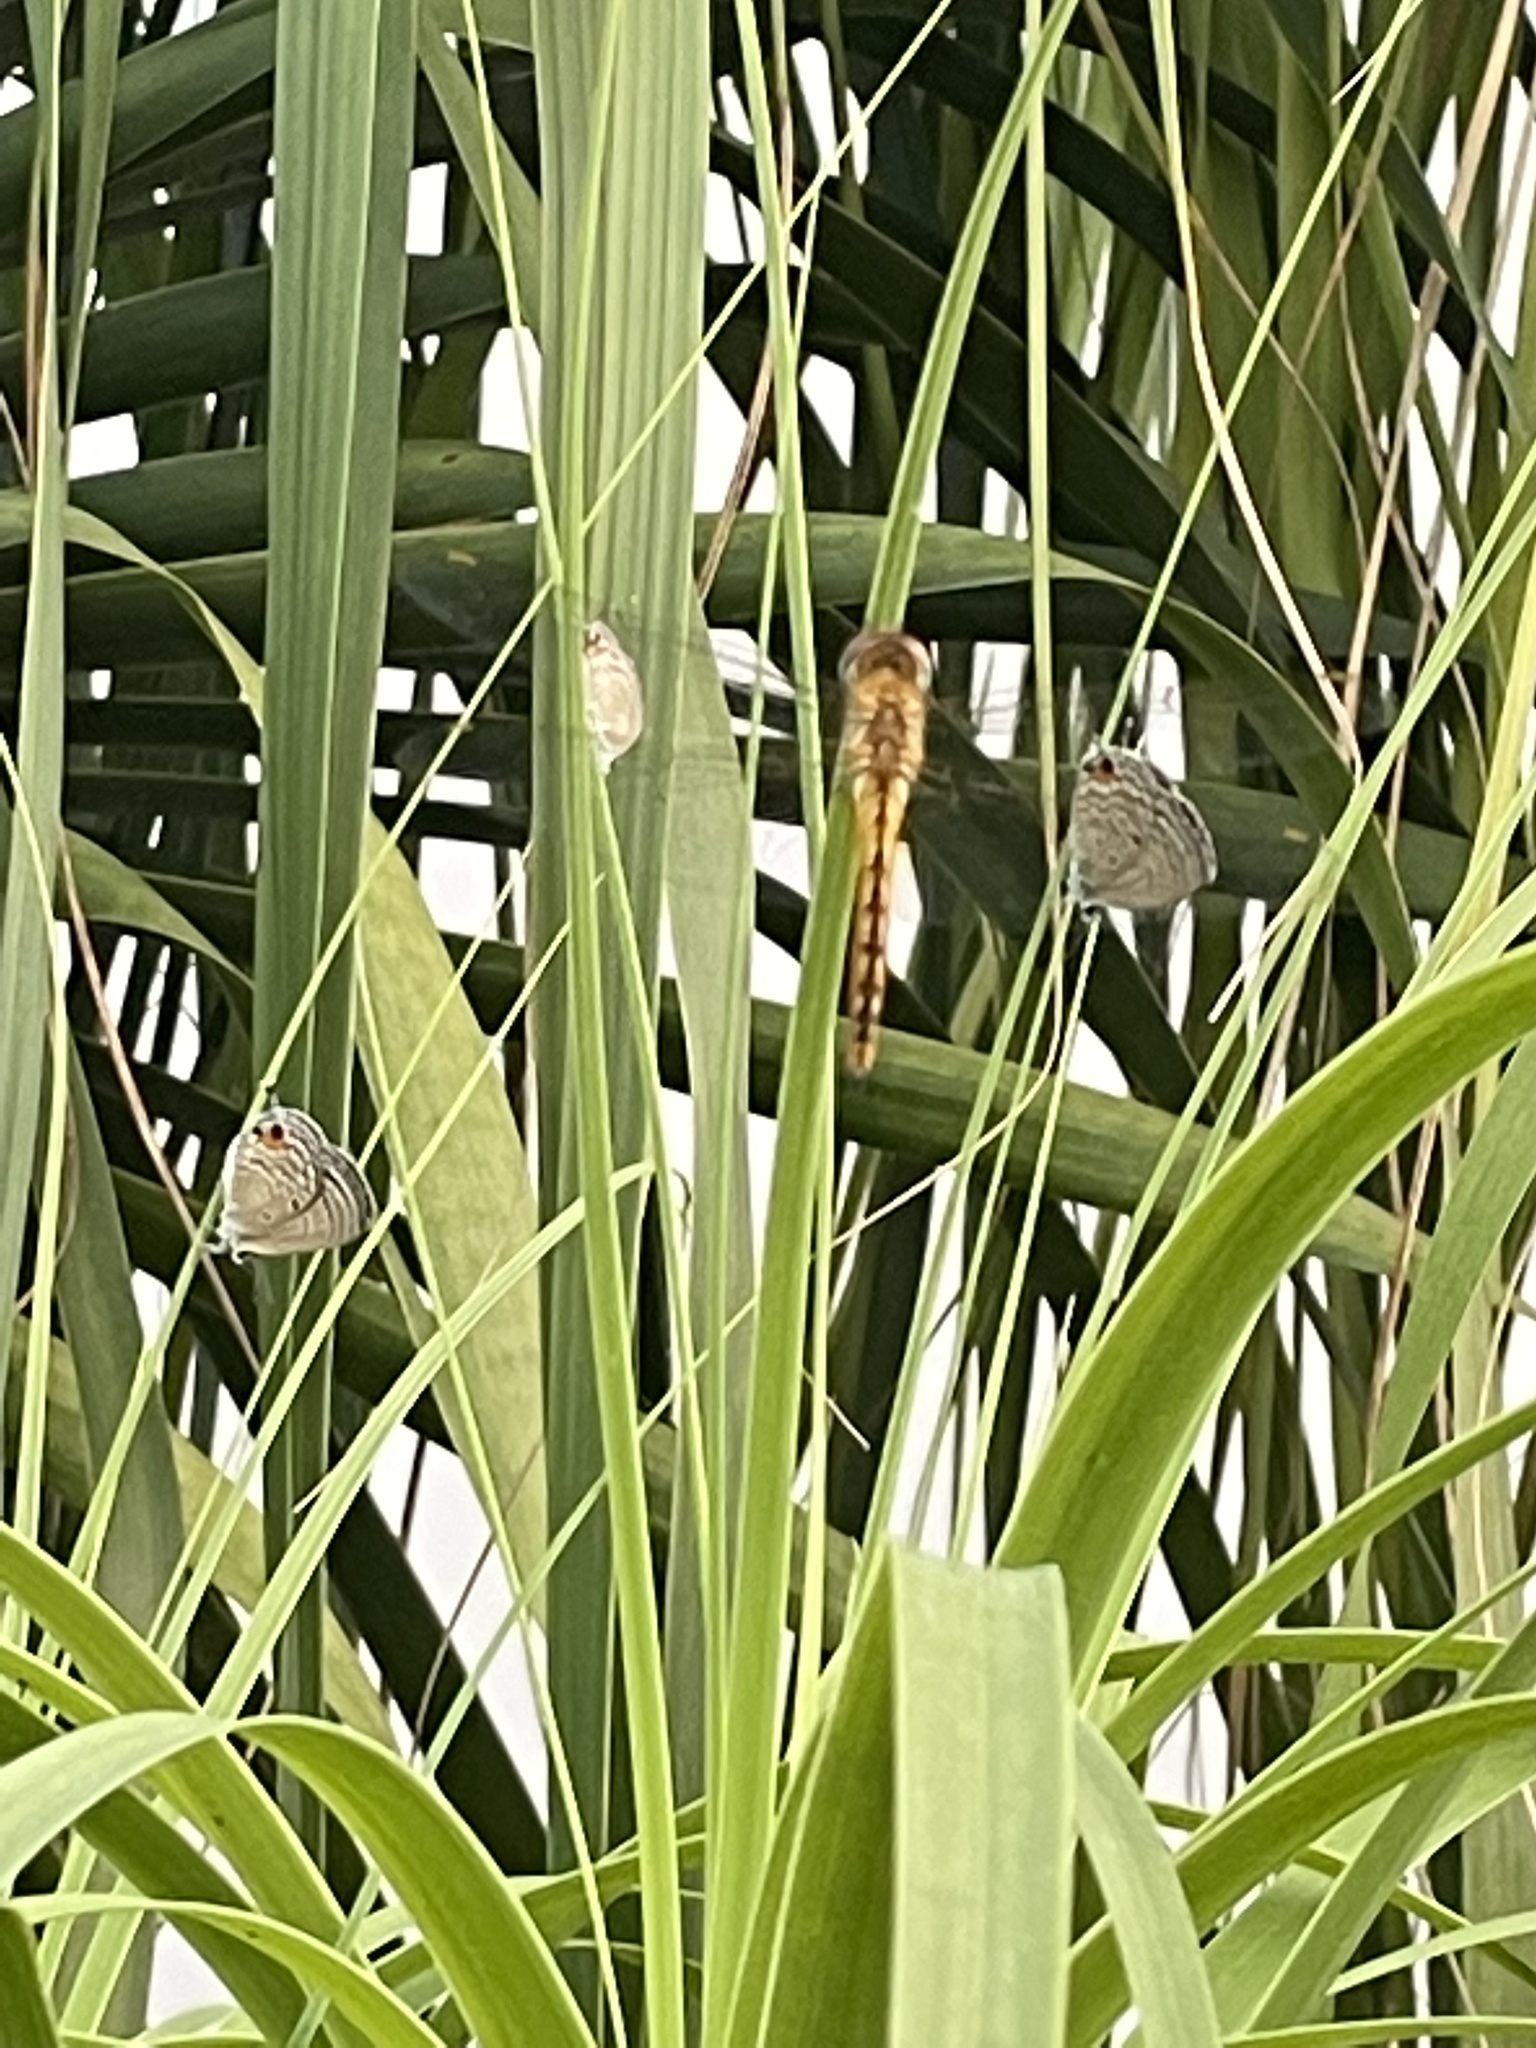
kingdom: Animalia
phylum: Arthropoda
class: Insecta
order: Odonata
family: Libellulidae
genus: Pantala
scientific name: Pantala flavescens
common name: Wandering glider
